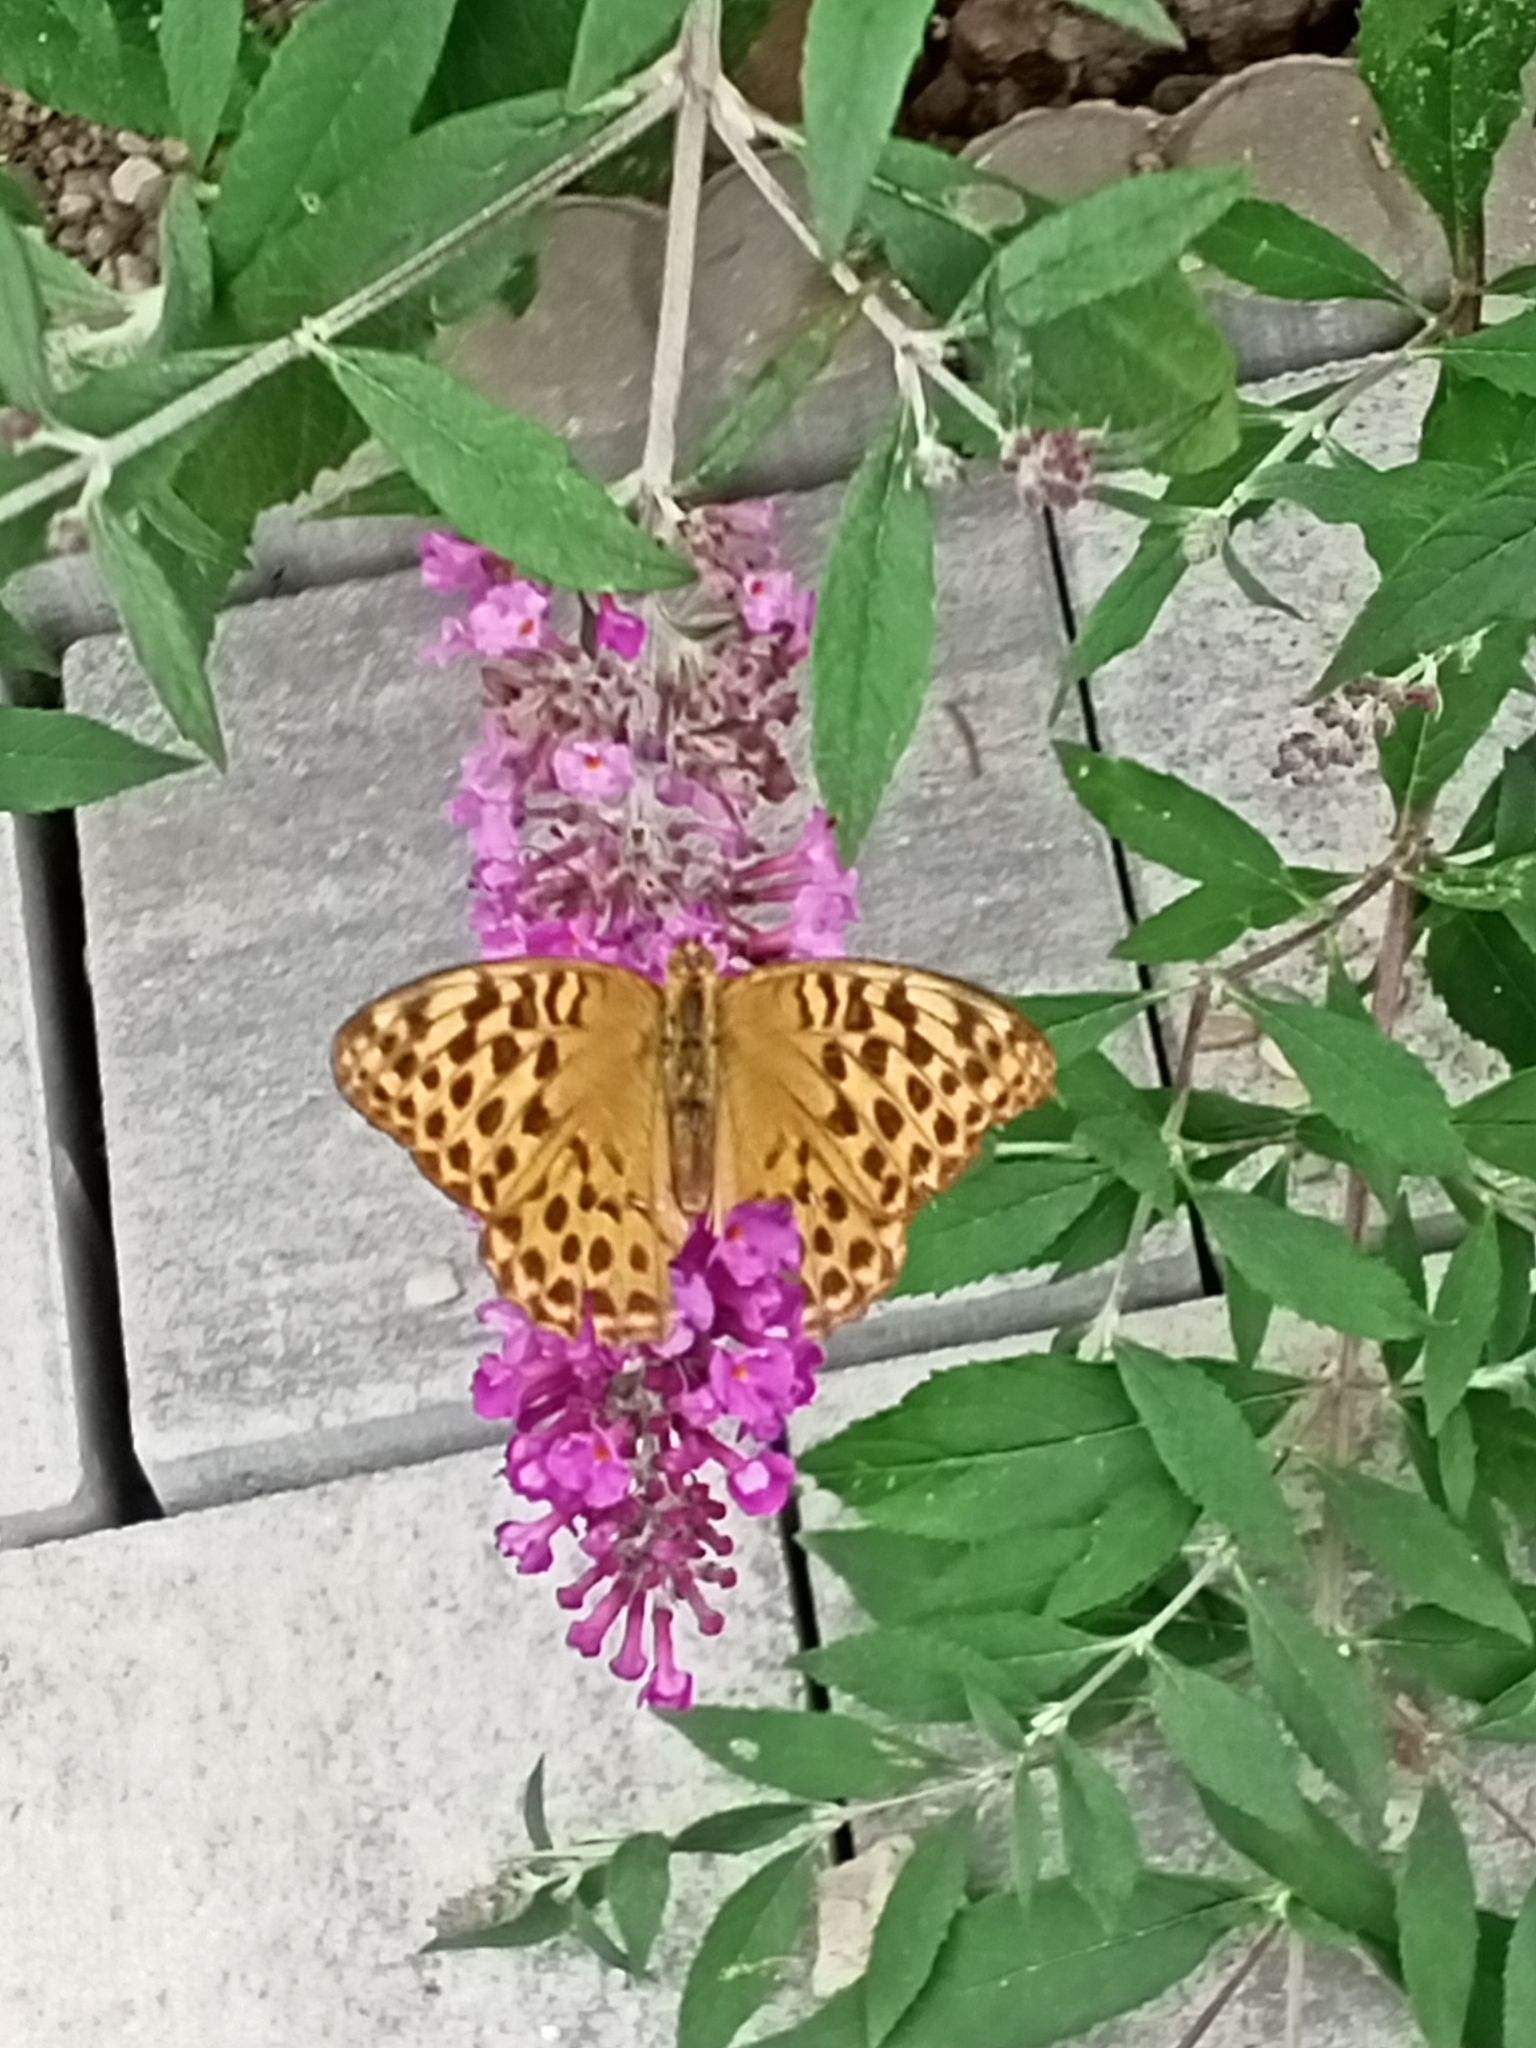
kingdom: Animalia
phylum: Arthropoda
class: Insecta
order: Lepidoptera
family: Nymphalidae
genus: Argynnis
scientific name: Argynnis paphia
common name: Silver-washed fritillary
